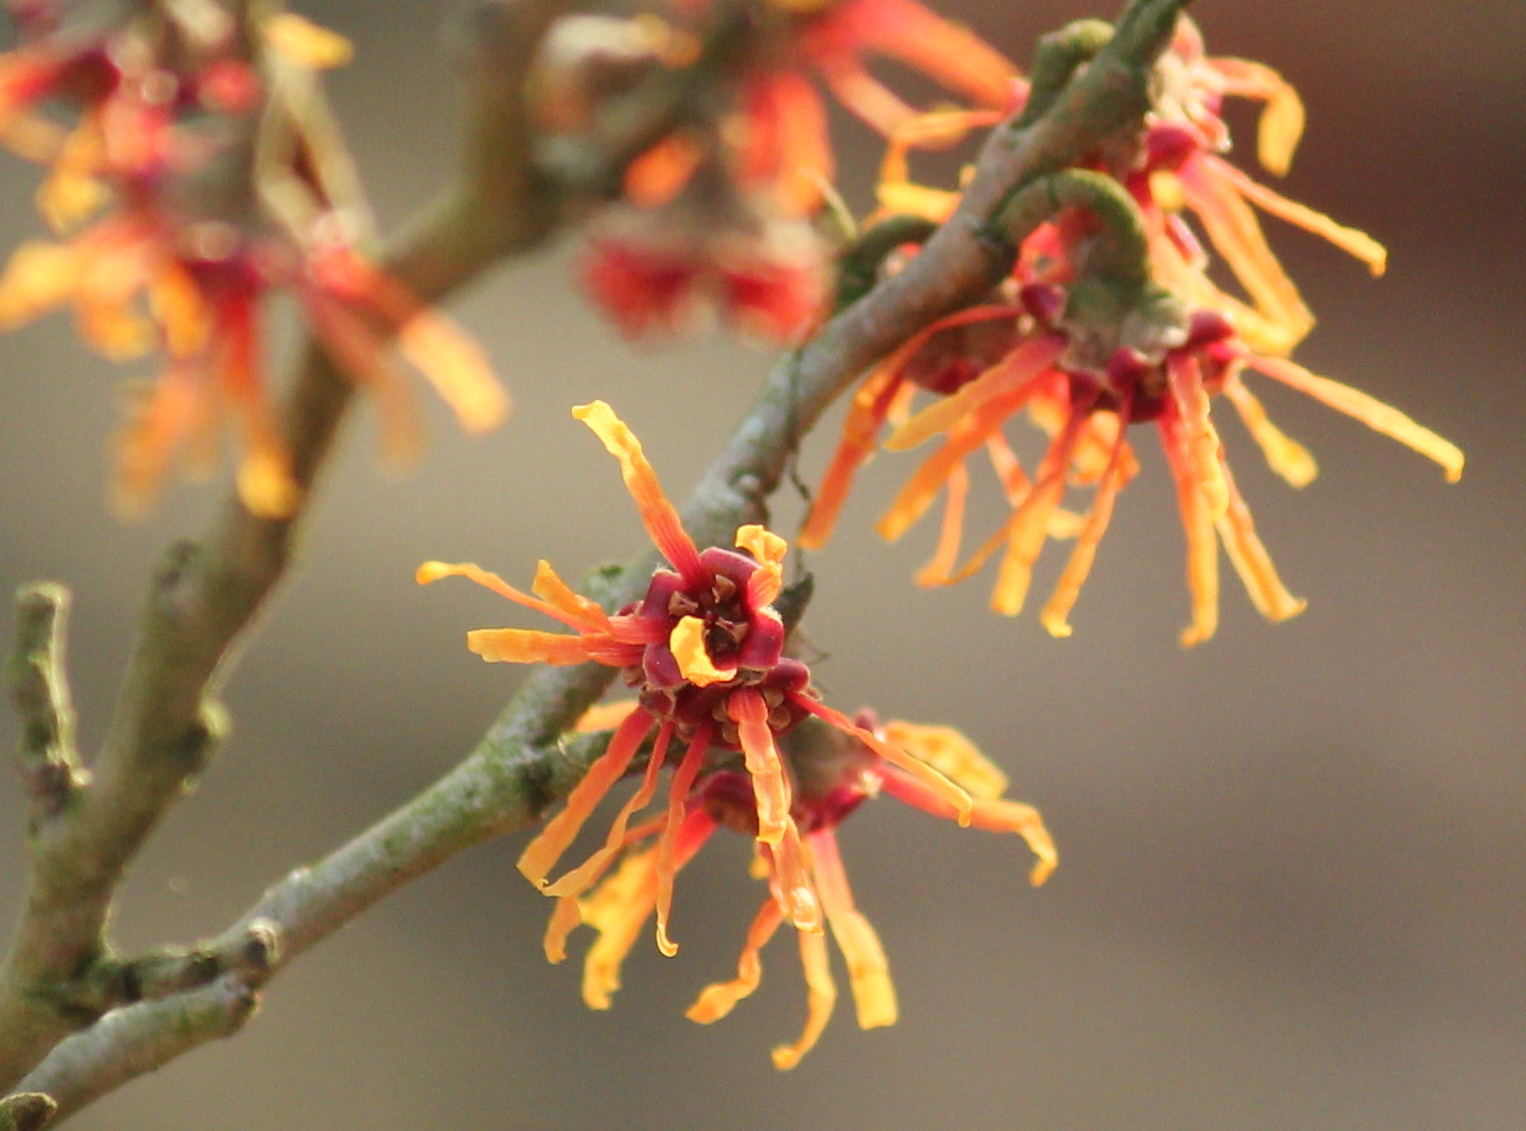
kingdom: Plantae
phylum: Tracheophyta
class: Magnoliopsida
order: Saxifragales
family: Hamamelidaceae
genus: Hamamelis
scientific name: Hamamelis vernalis
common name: Ozark witch-hazel
